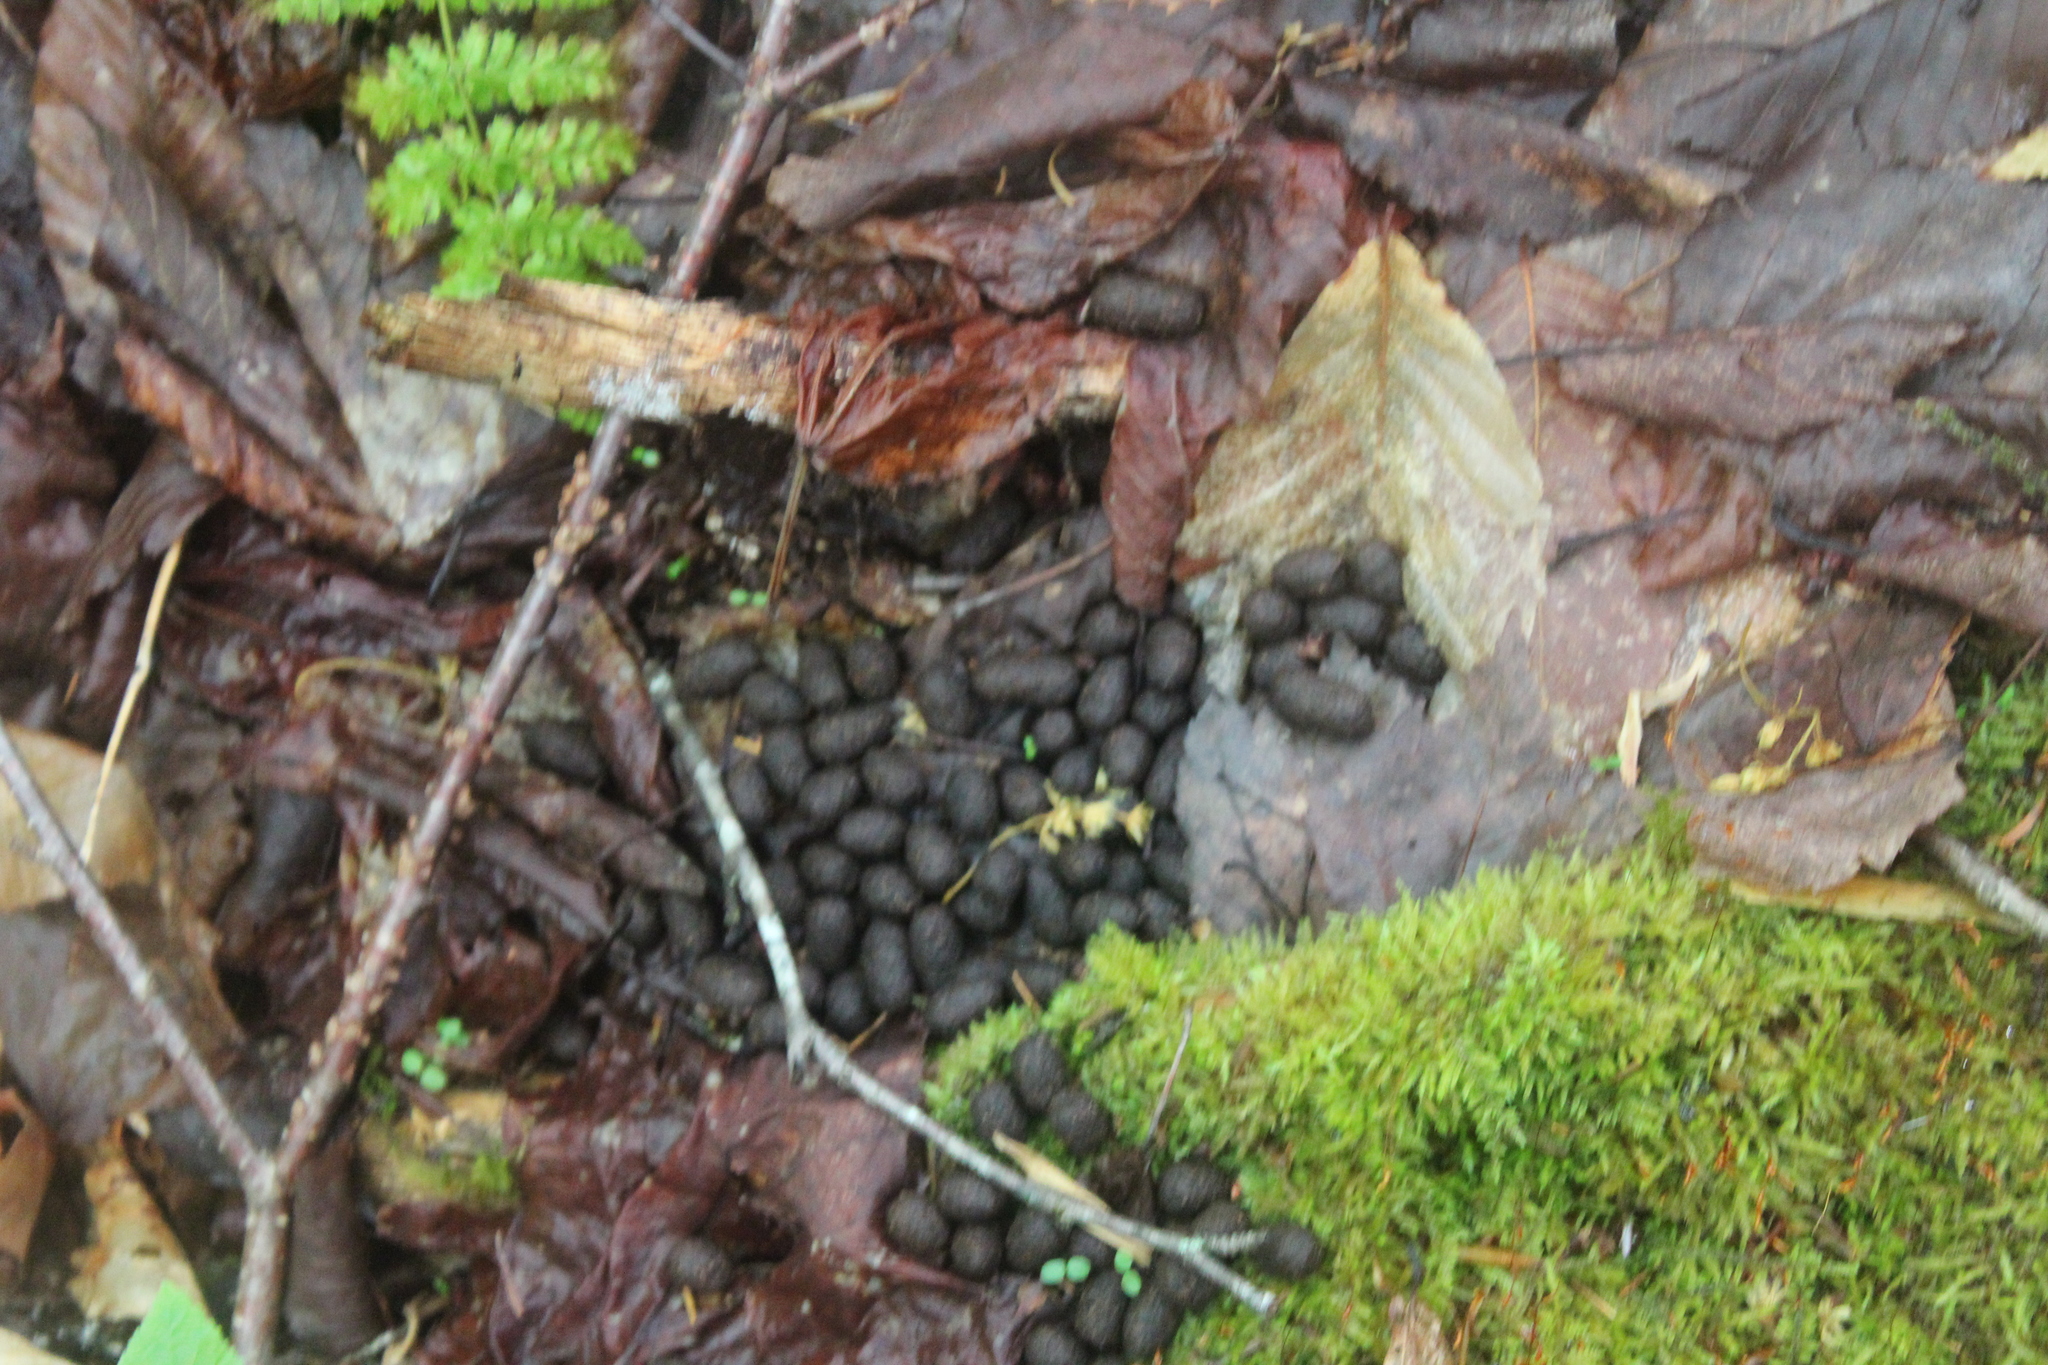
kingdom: Animalia
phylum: Chordata
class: Mammalia
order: Artiodactyla
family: Cervidae
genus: Alces
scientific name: Alces alces
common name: Moose
